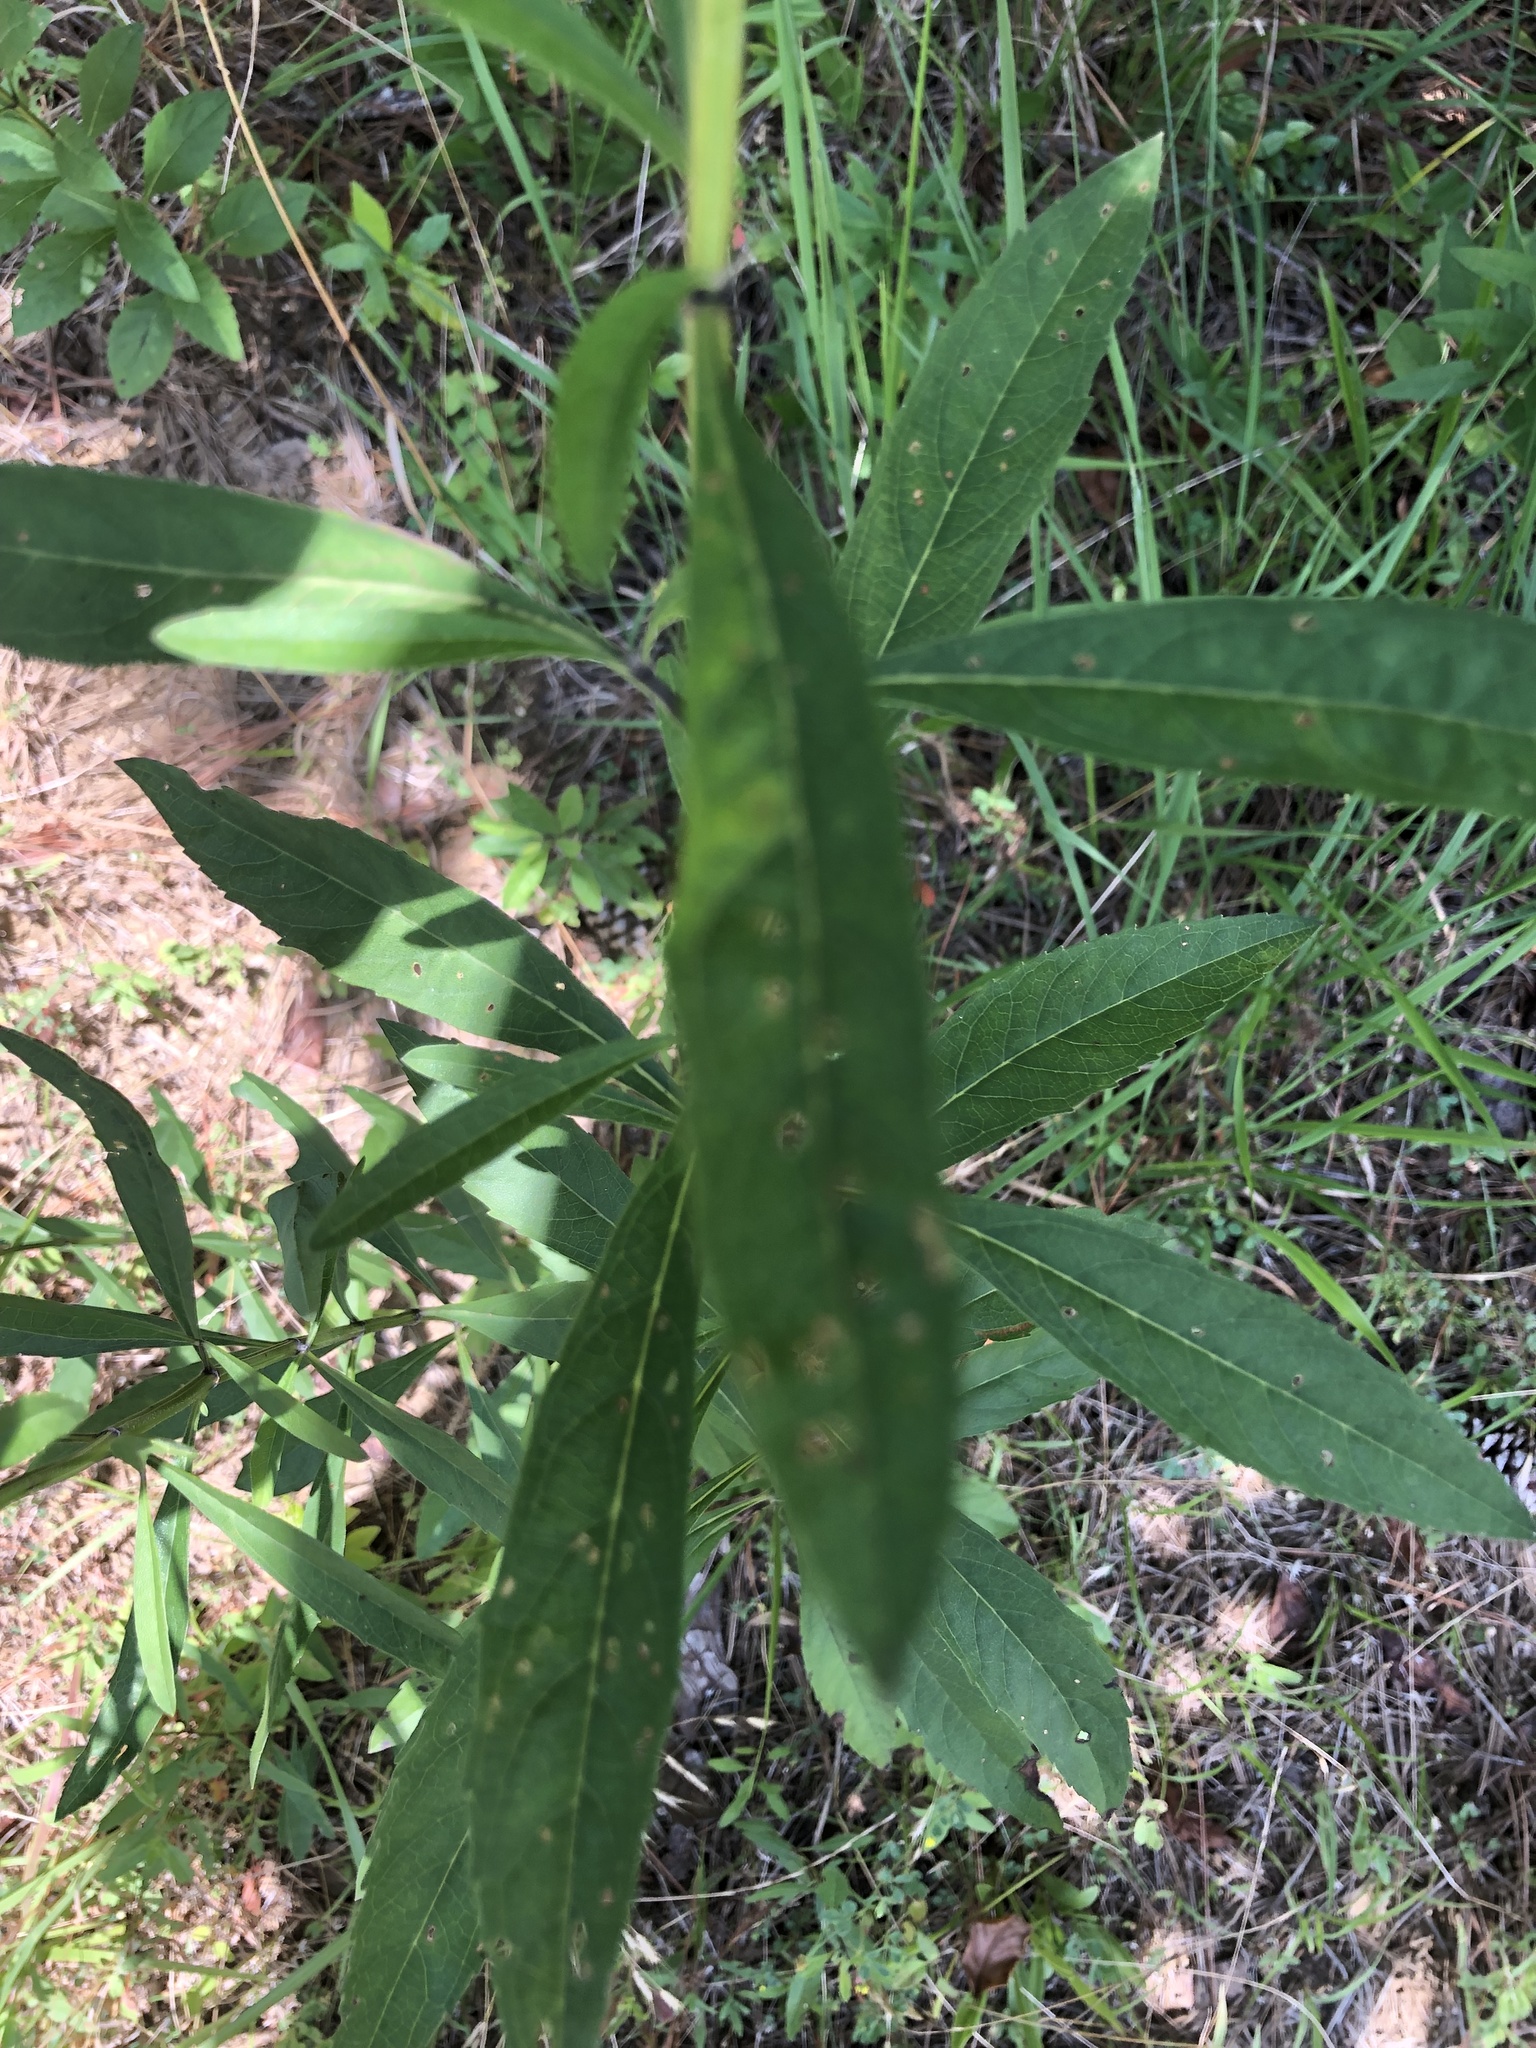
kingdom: Plantae
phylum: Tracheophyta
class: Magnoliopsida
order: Lamiales
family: Lamiaceae
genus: Salvia
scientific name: Salvia azurea
